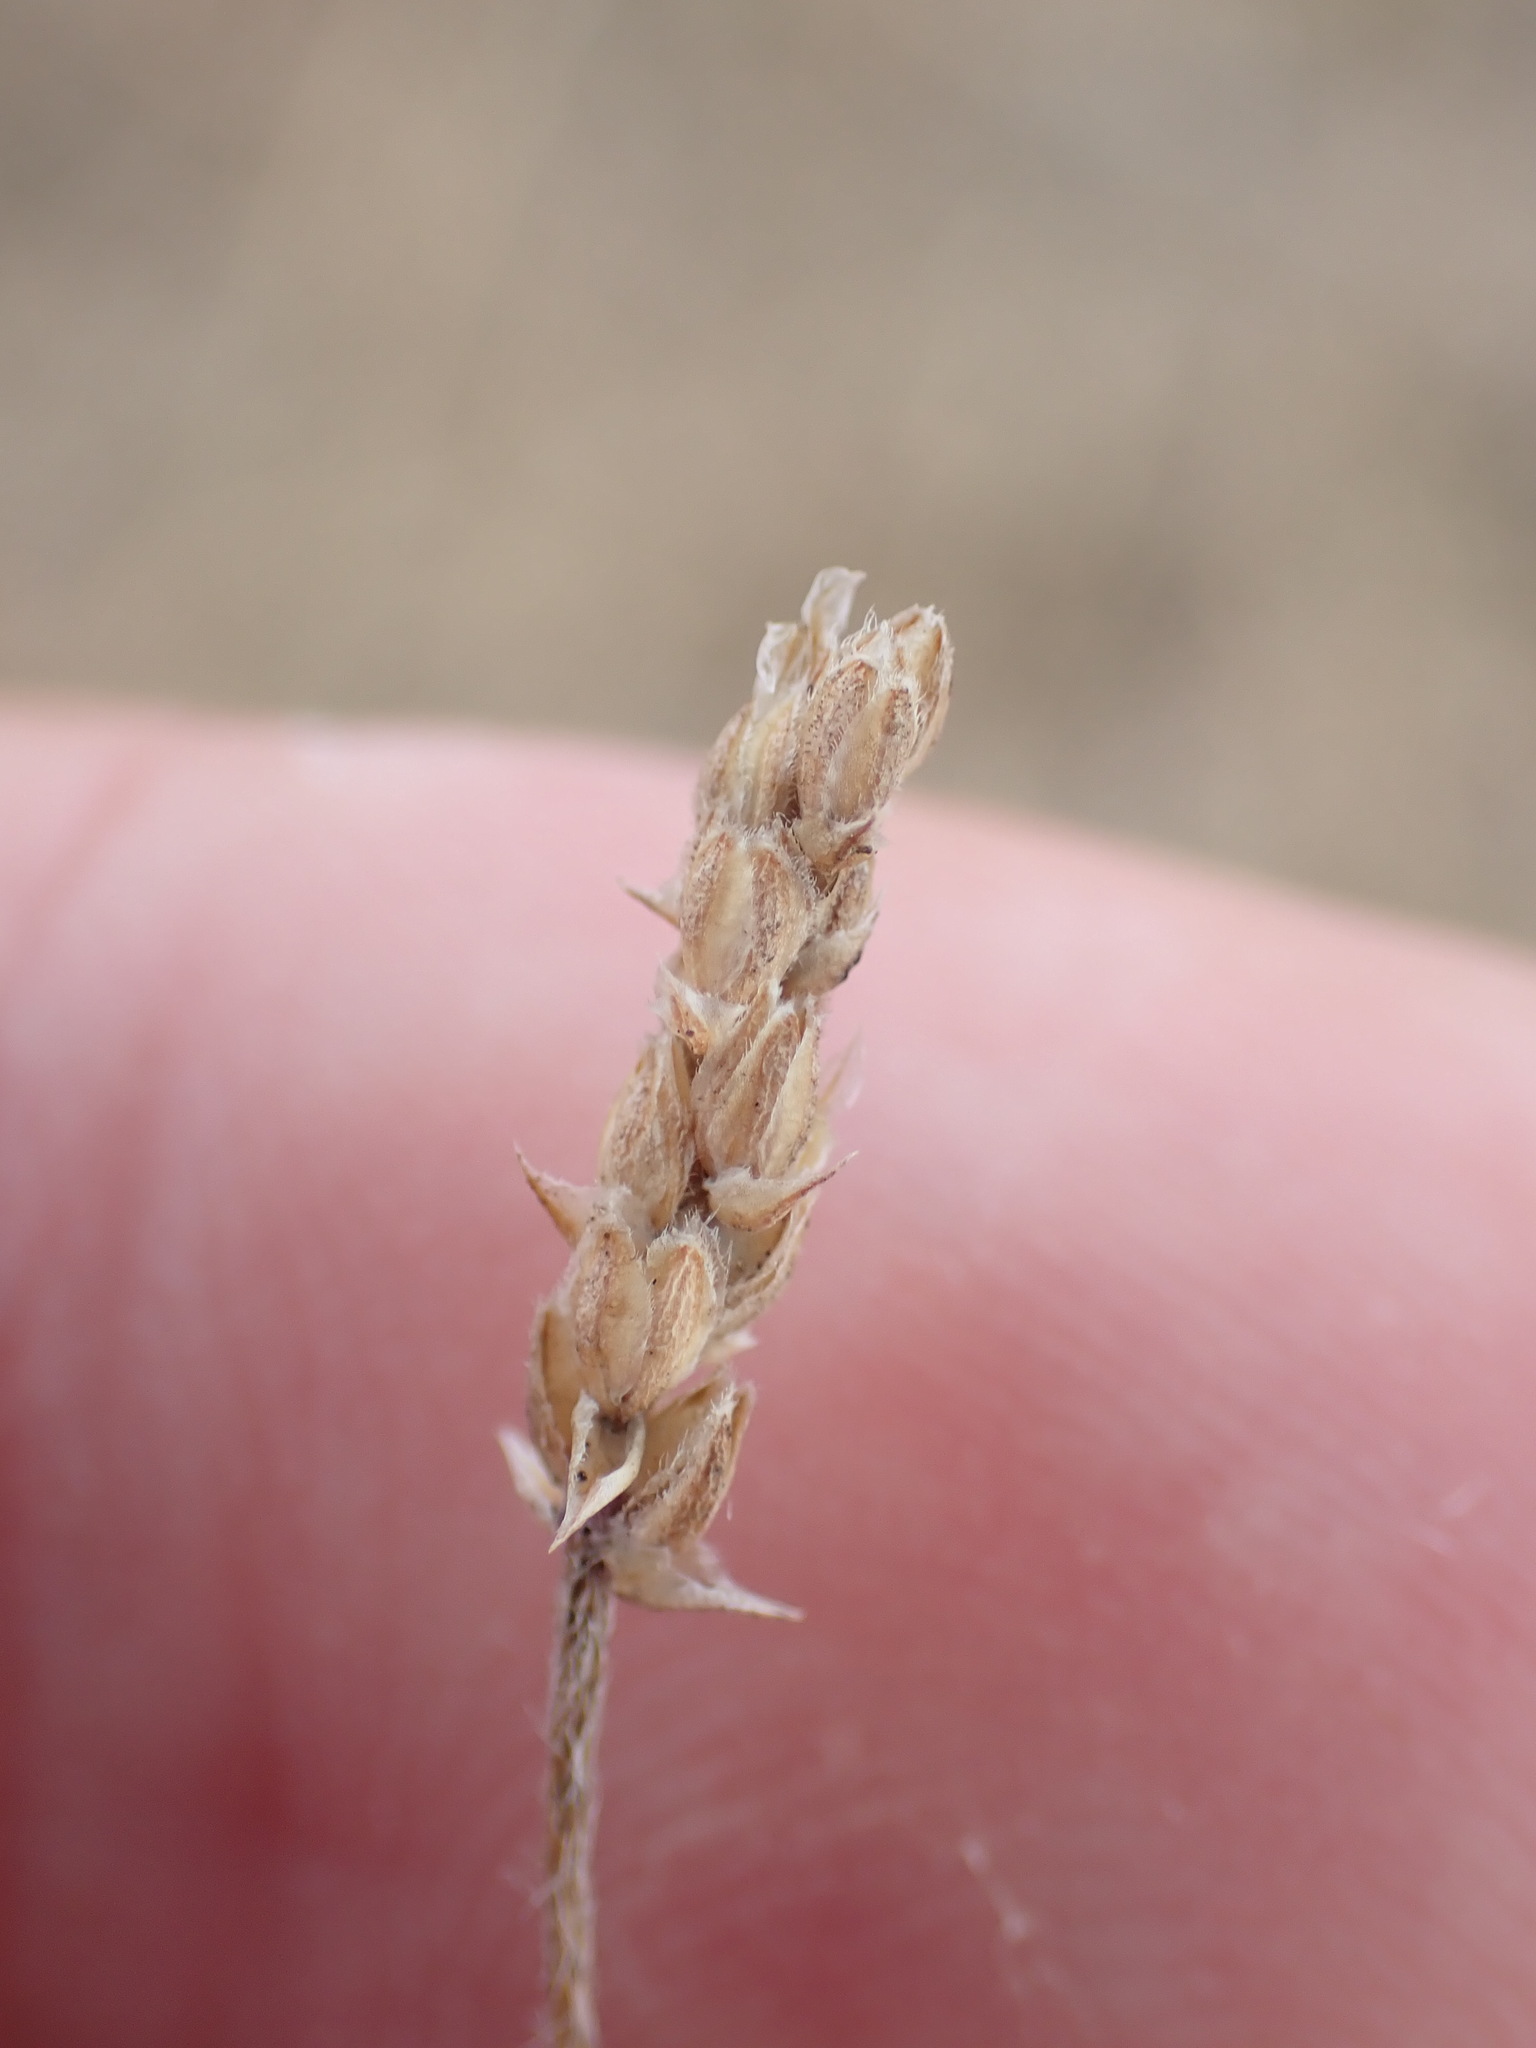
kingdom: Plantae
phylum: Tracheophyta
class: Magnoliopsida
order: Lamiales
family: Plantaginaceae
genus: Plantago
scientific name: Plantago coronopus
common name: Buck's-horn plantain
